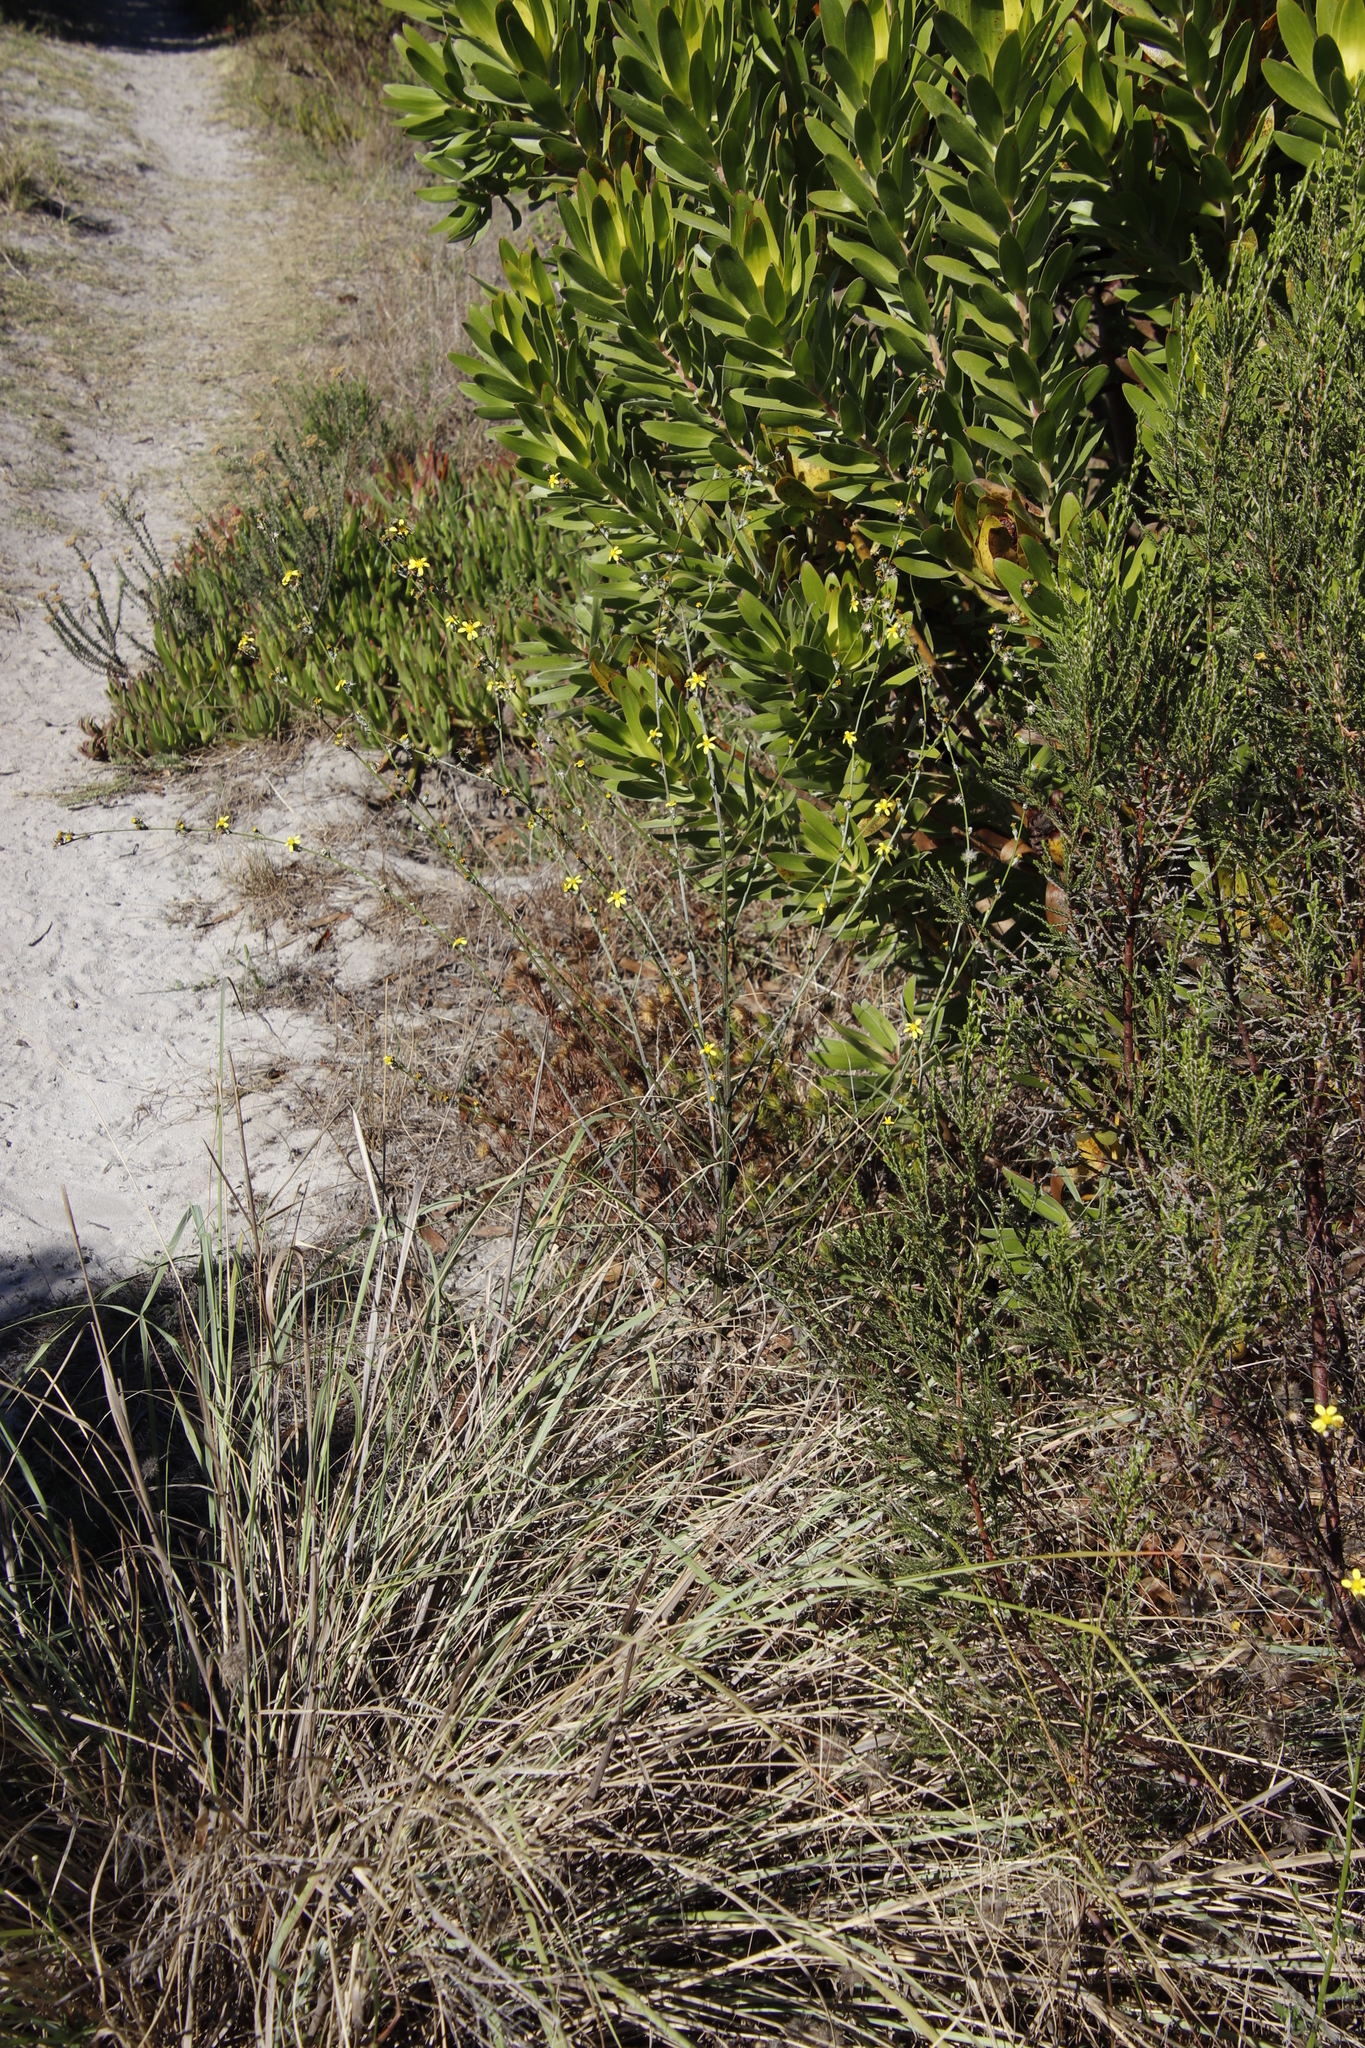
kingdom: Plantae
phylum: Tracheophyta
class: Magnoliopsida
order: Asterales
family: Asteraceae
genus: Senecio
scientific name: Senecio pubigerus
